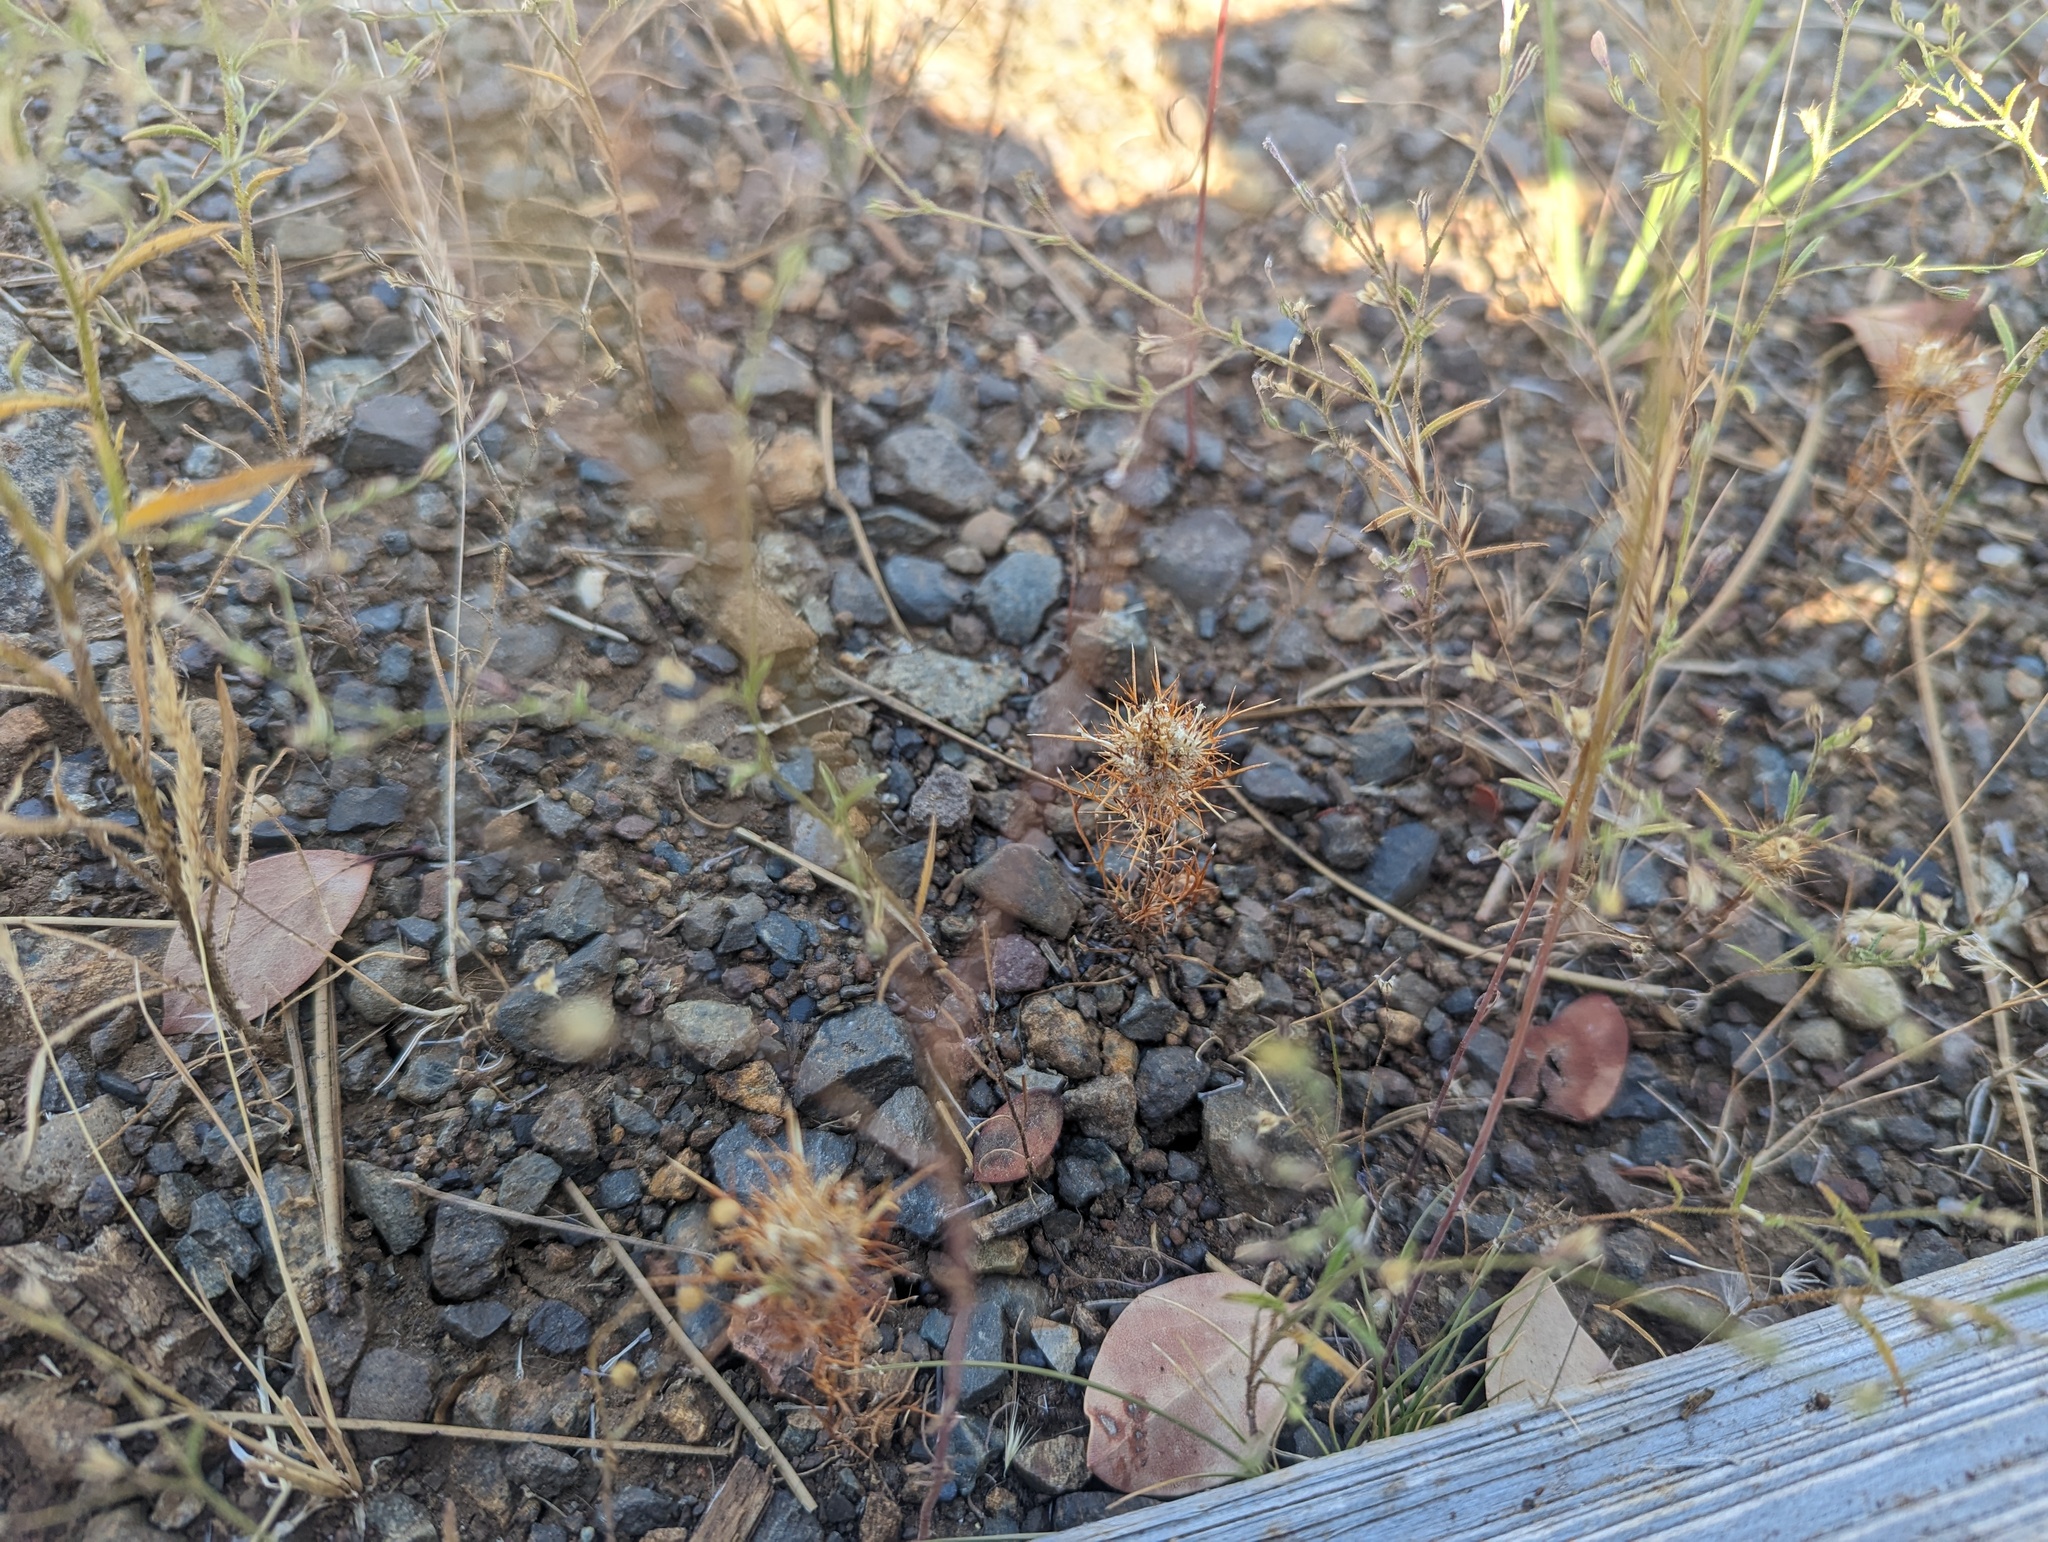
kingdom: Plantae
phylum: Tracheophyta
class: Magnoliopsida
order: Ericales
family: Polemoniaceae
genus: Navarretia
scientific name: Navarretia intertexta
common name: Needle-leaved navarretia
